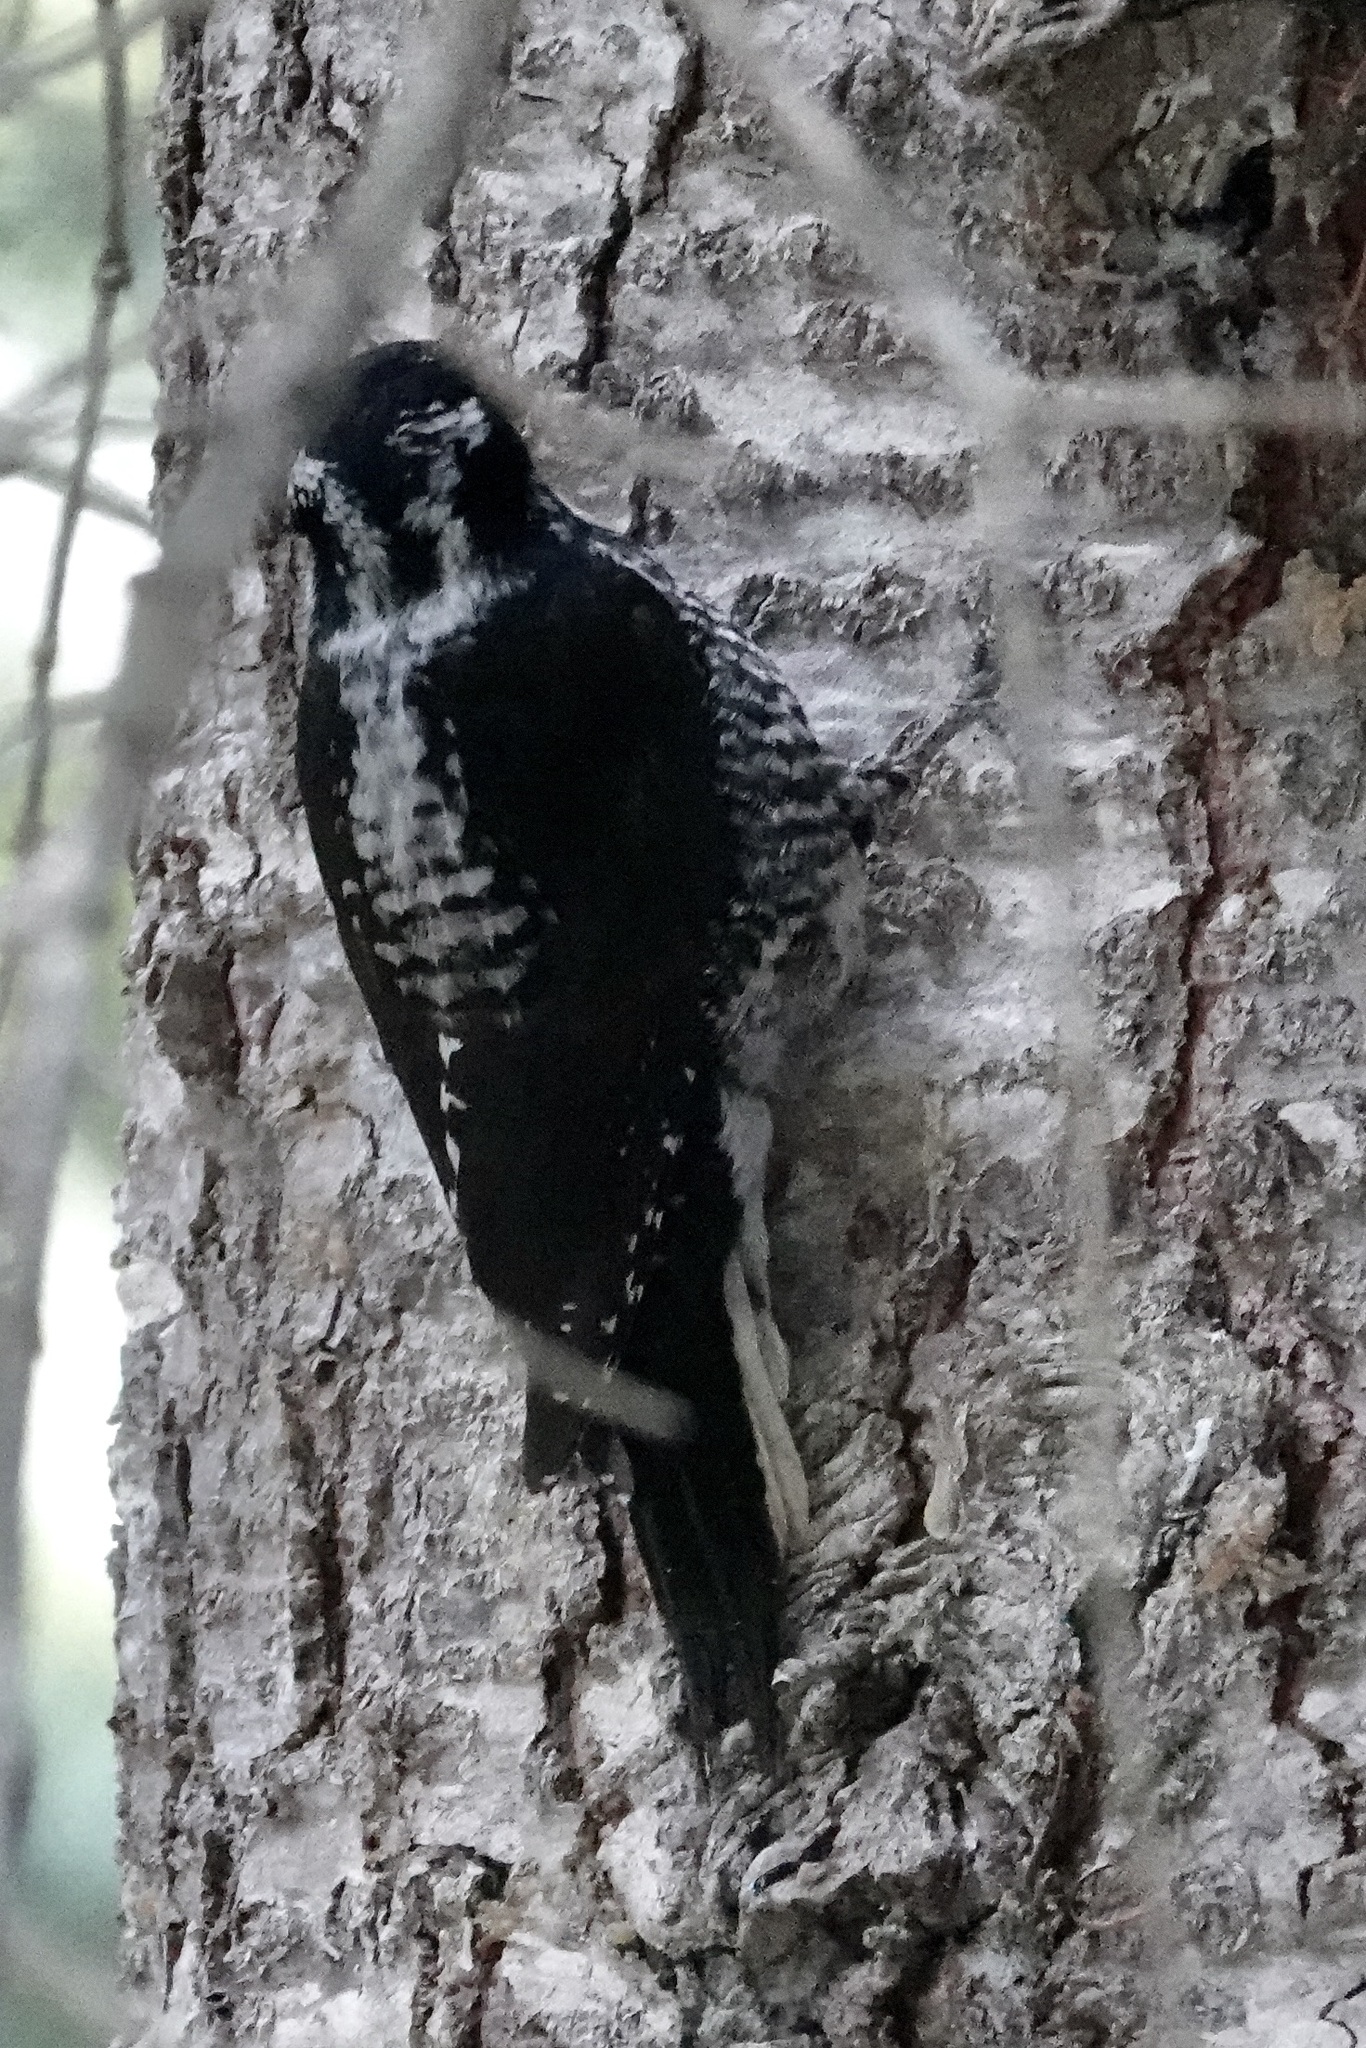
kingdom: Animalia
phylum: Chordata
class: Aves
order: Piciformes
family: Picidae
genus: Picoides
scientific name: Picoides dorsalis
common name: American three-toed woodpecker
